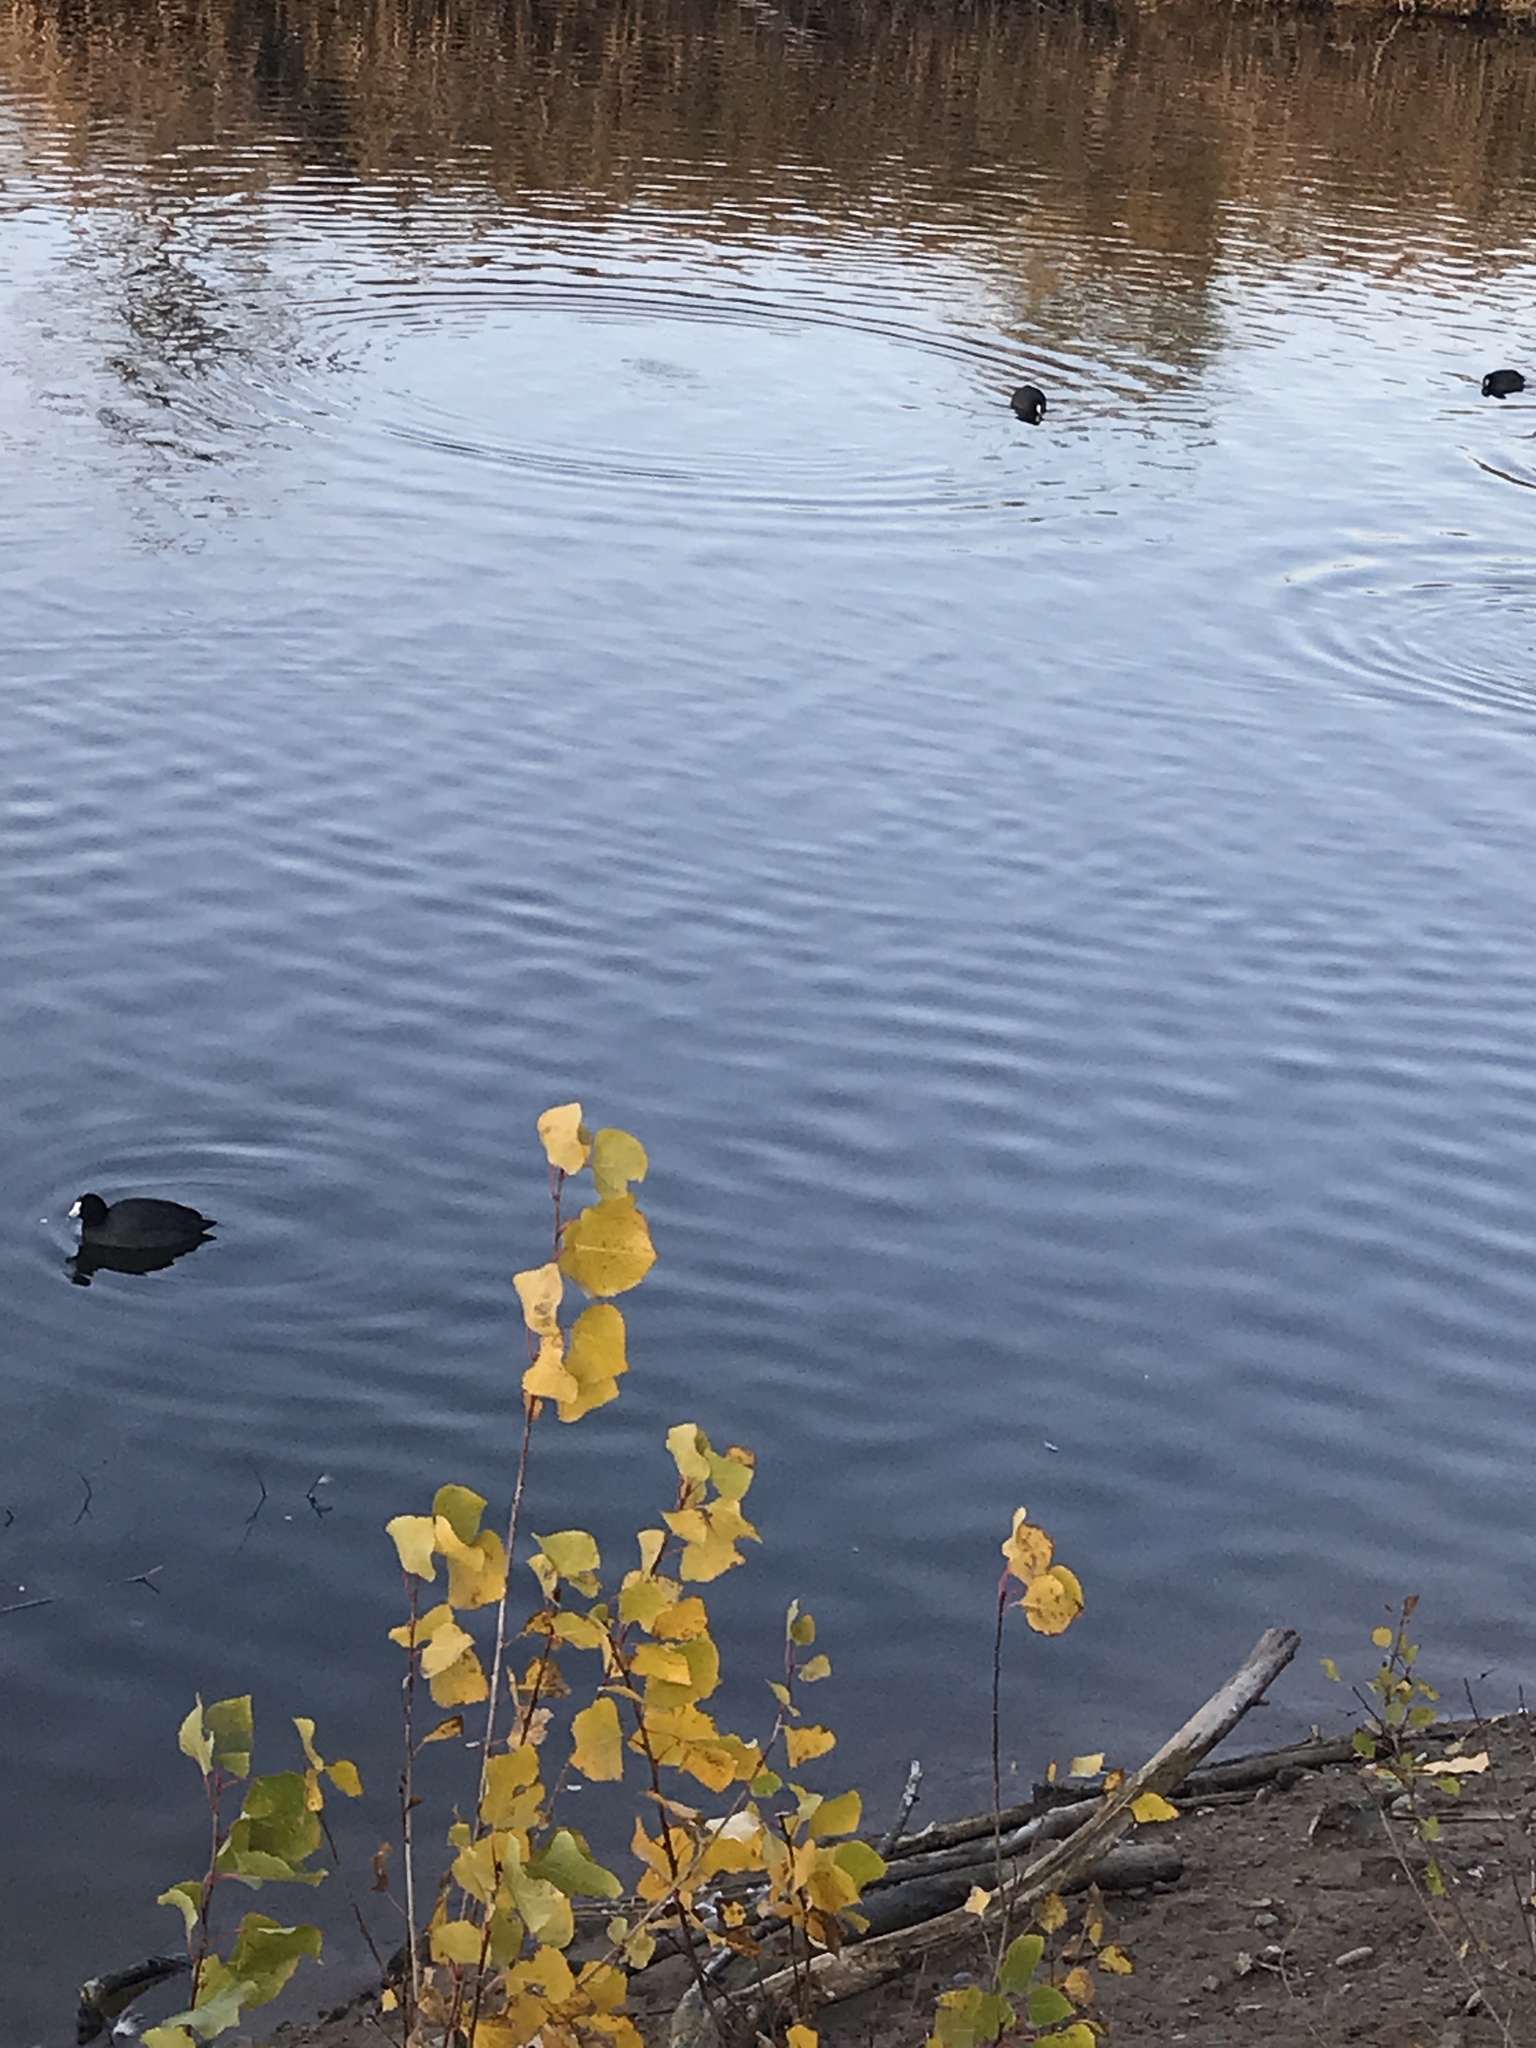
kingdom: Animalia
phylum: Chordata
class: Aves
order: Gruiformes
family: Rallidae
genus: Fulica
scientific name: Fulica americana
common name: American coot
